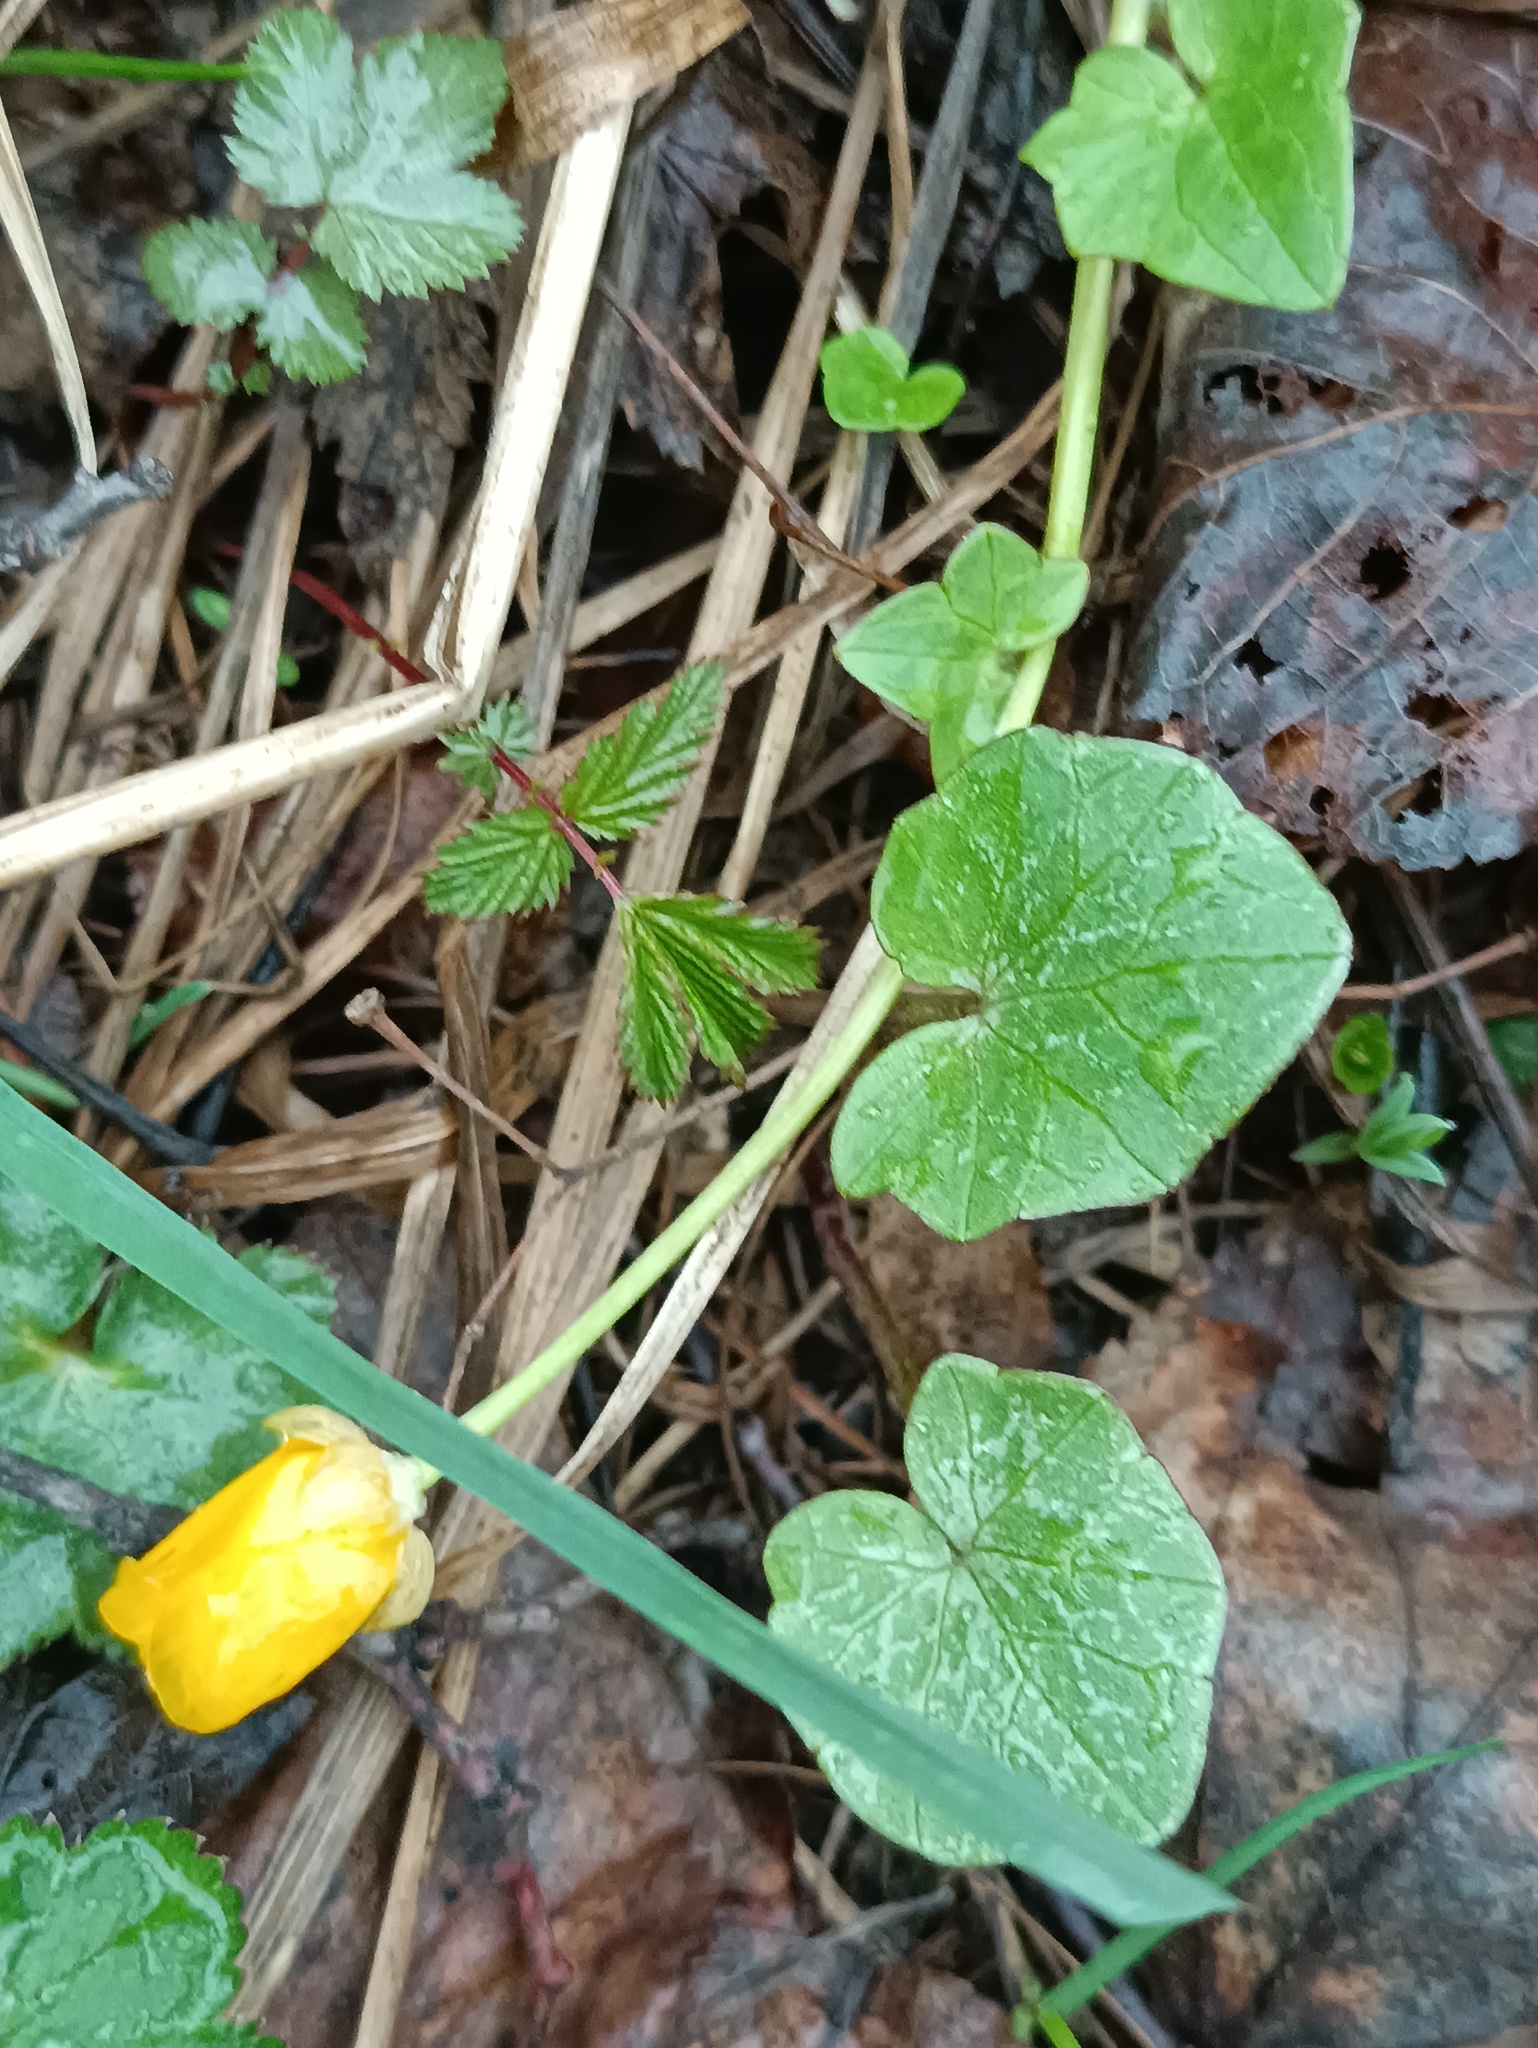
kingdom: Plantae
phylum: Tracheophyta
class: Magnoliopsida
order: Ranunculales
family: Ranunculaceae
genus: Ficaria
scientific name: Ficaria verna
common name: Lesser celandine
